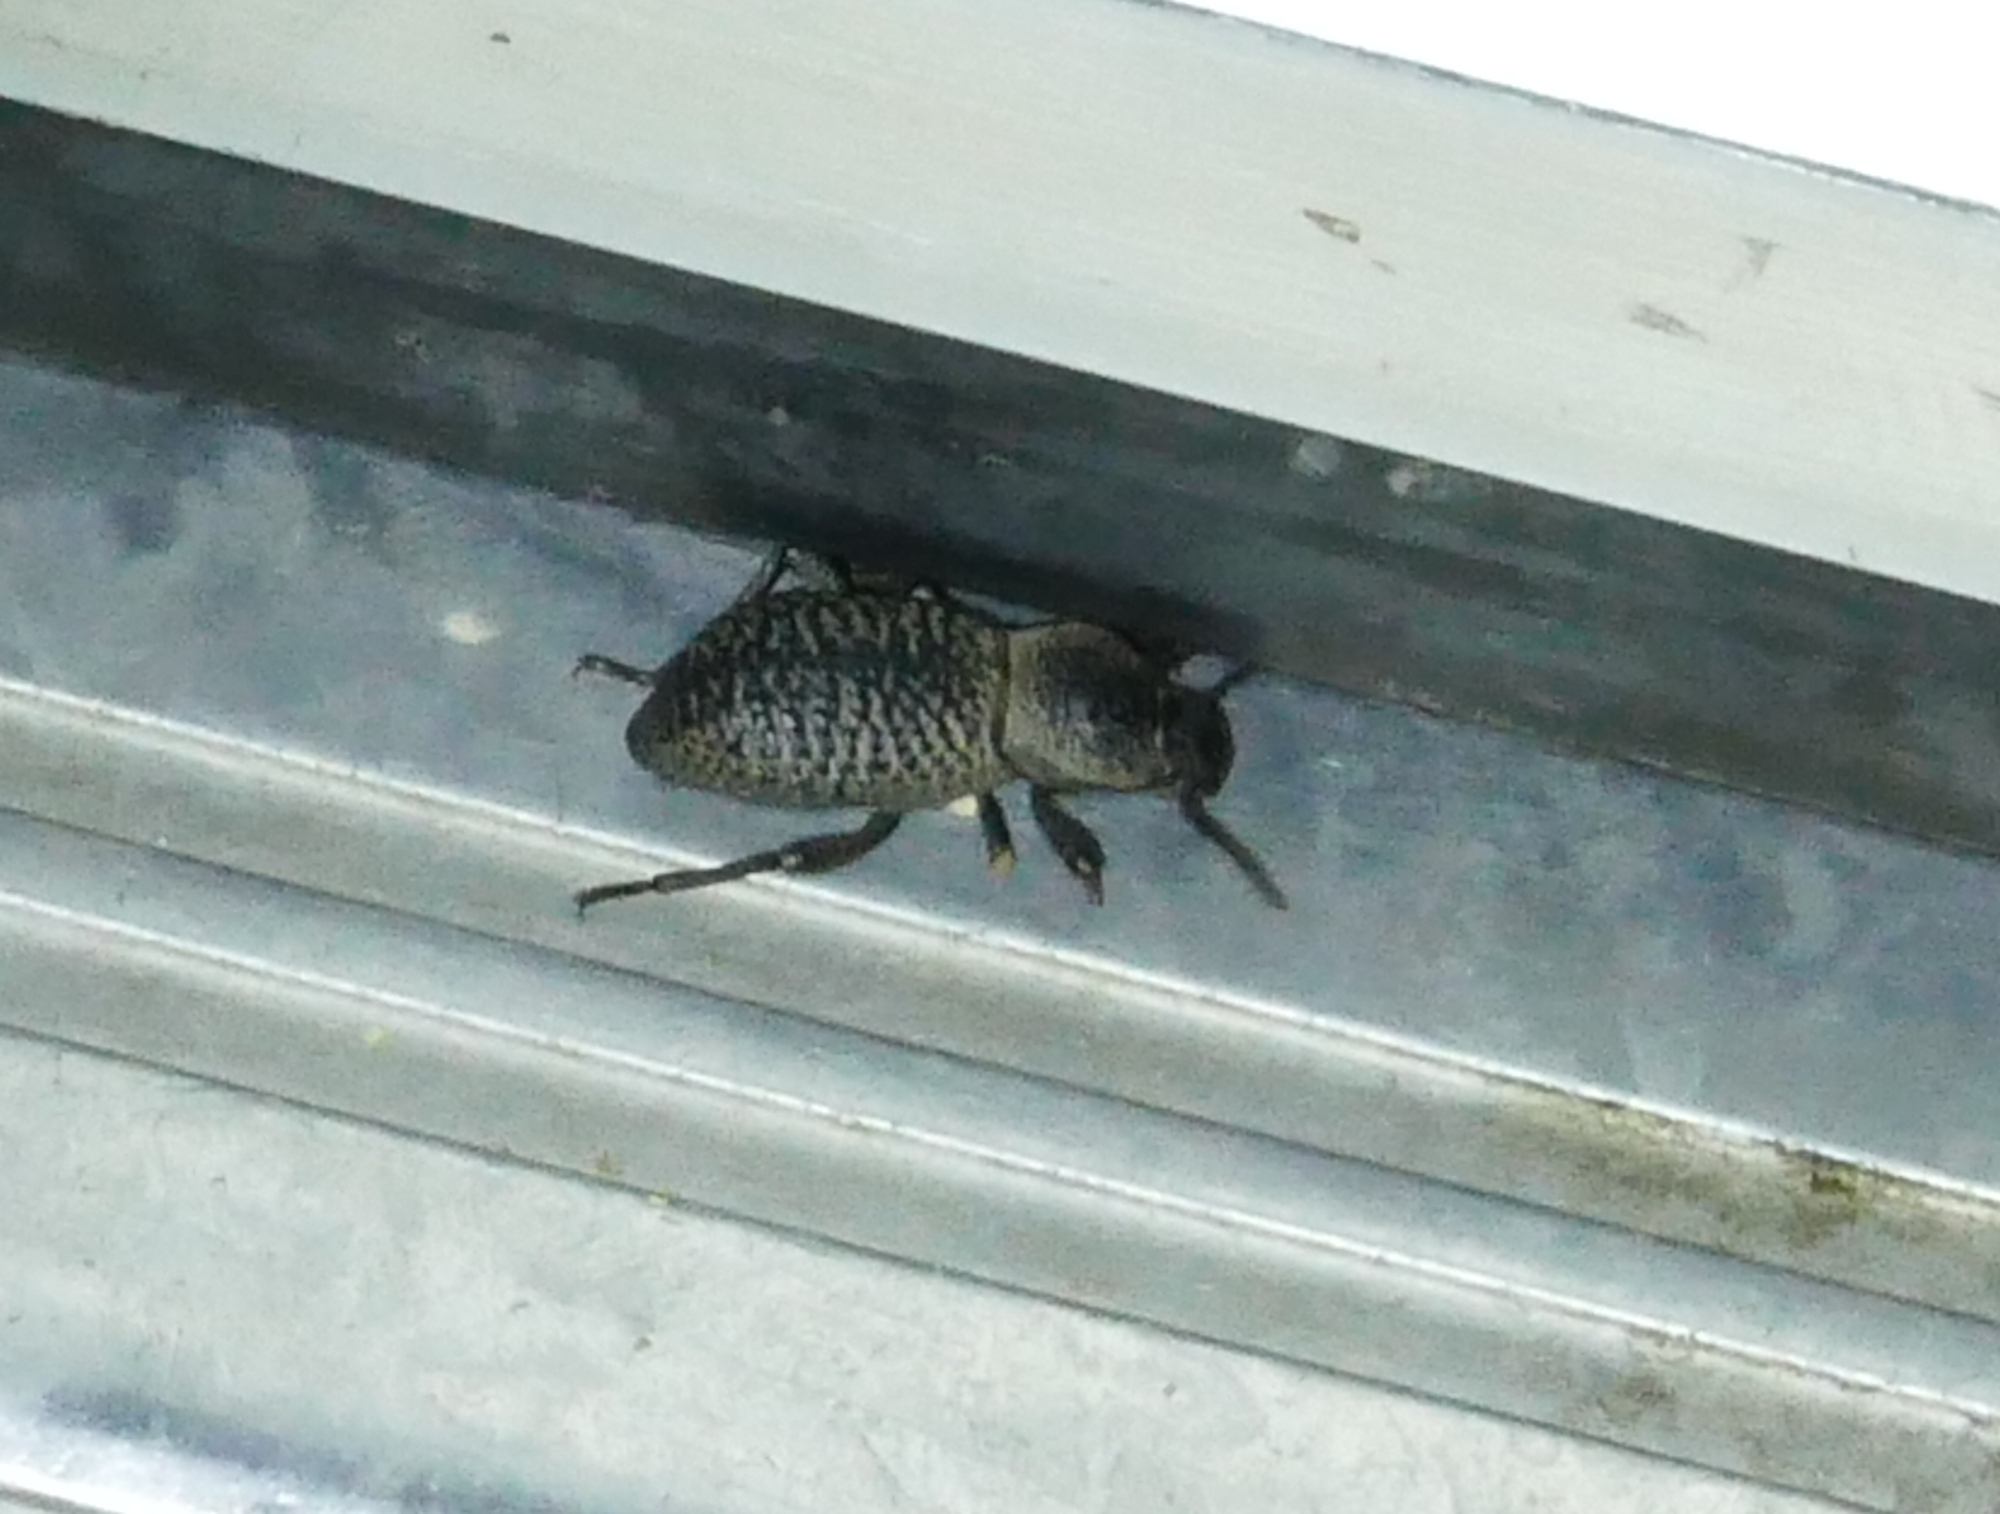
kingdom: Animalia
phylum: Arthropoda
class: Insecta
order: Coleoptera
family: Tenebrionidae
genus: Cryptoglossa
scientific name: Cryptoglossa variolosa
